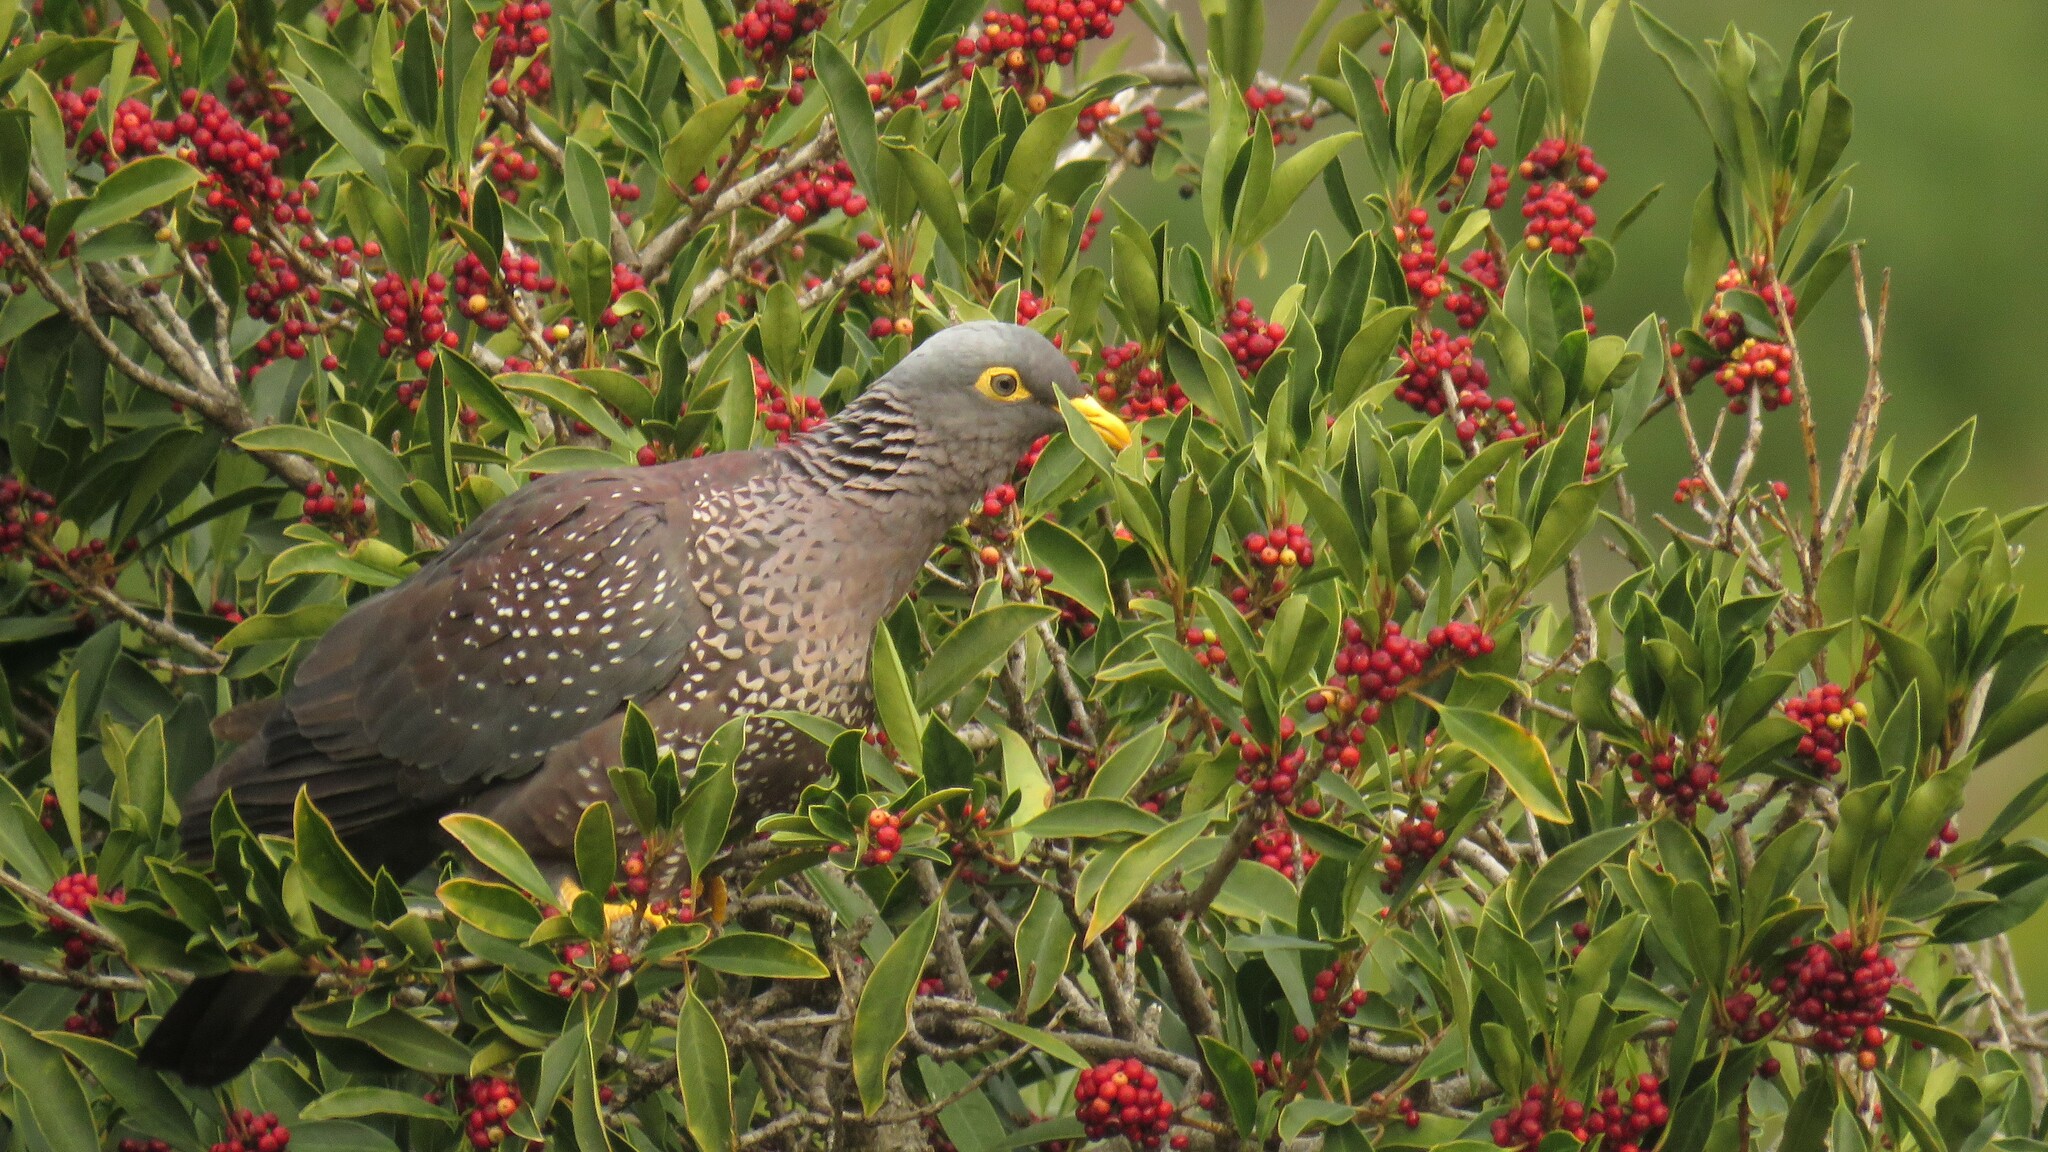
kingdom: Animalia
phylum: Chordata
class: Aves
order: Columbiformes
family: Columbidae
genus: Columba
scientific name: Columba arquatrix
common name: African olive pigeon
